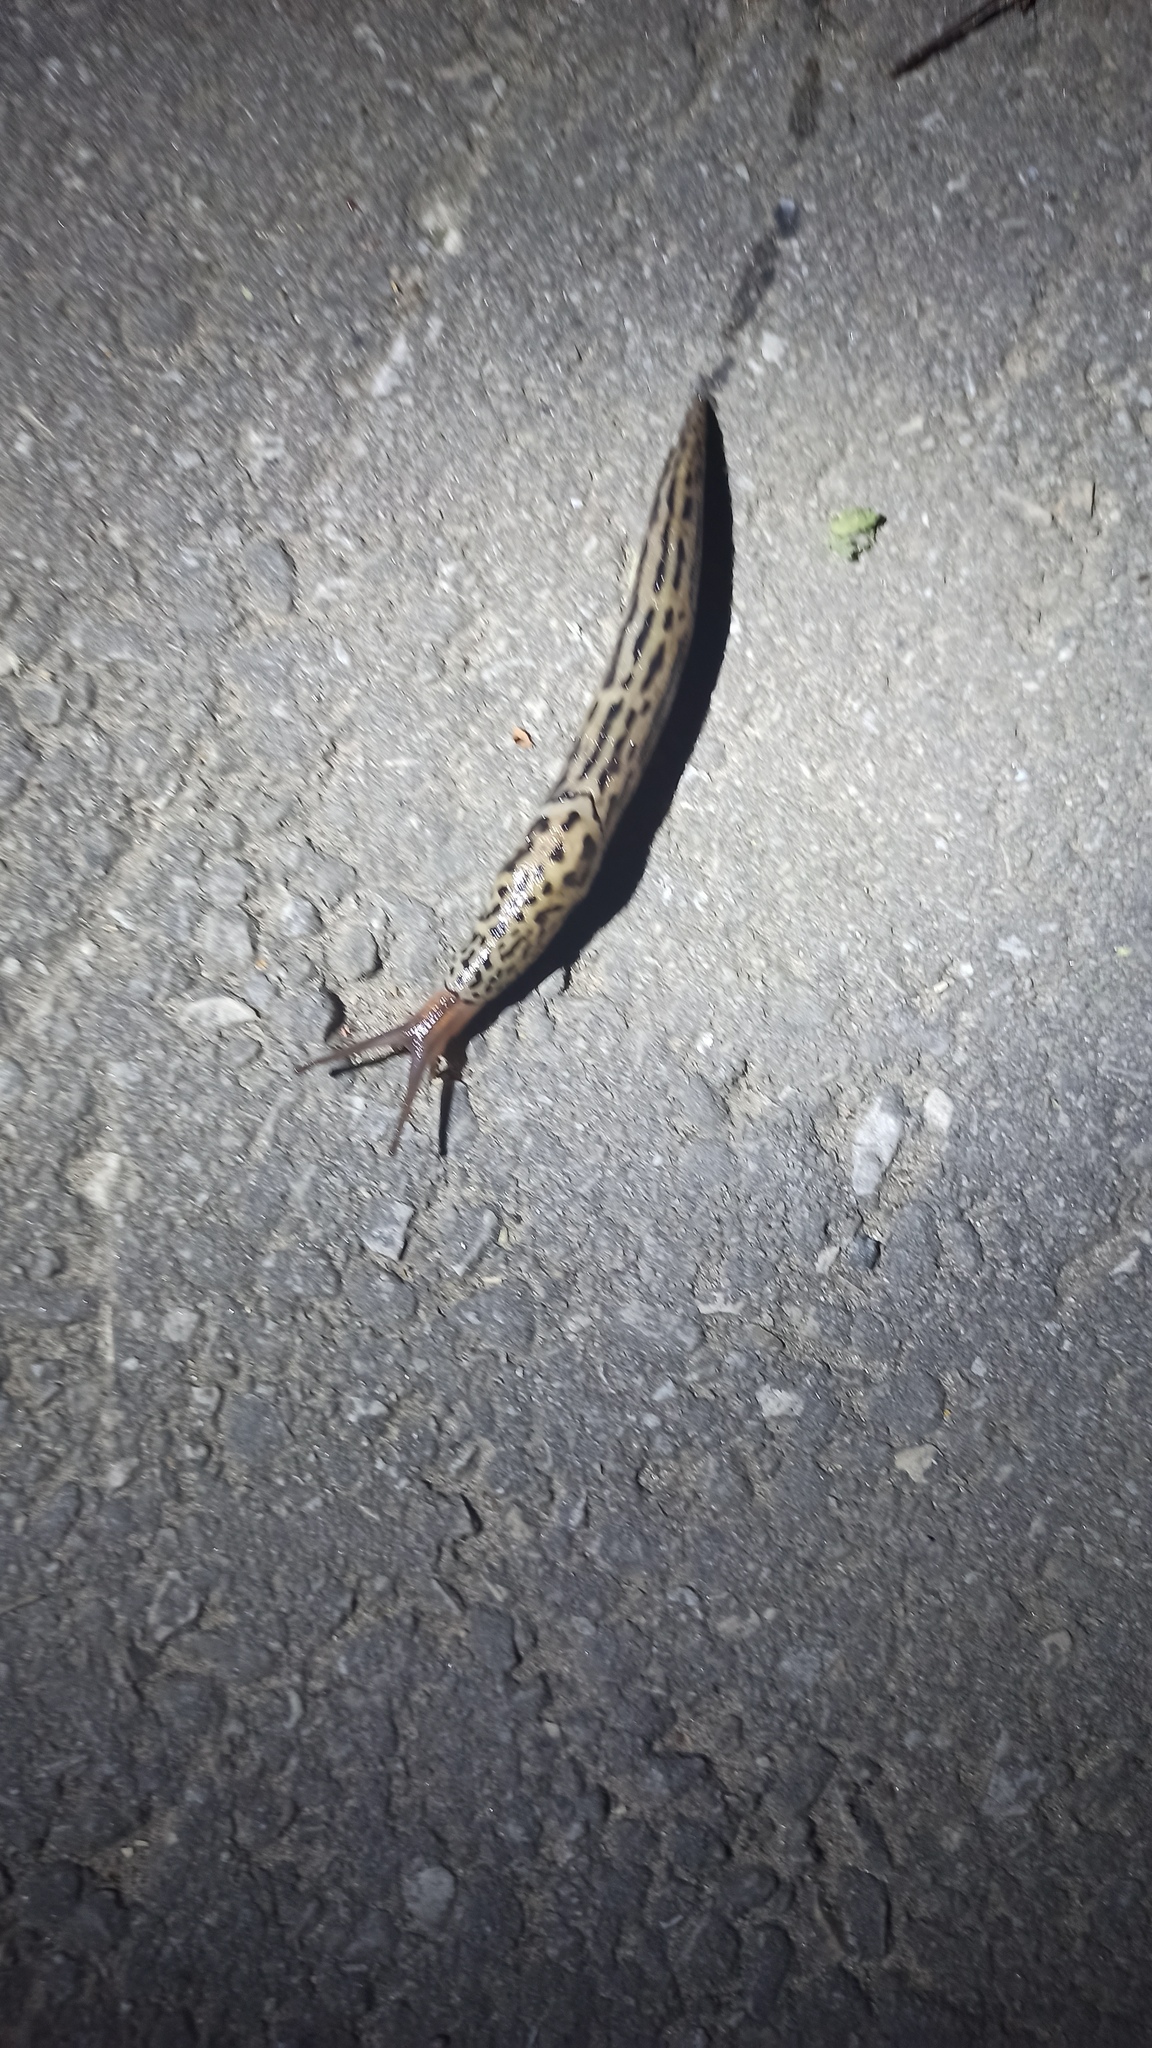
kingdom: Animalia
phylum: Mollusca
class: Gastropoda
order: Stylommatophora
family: Limacidae
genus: Limax
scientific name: Limax maximus
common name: Great grey slug
